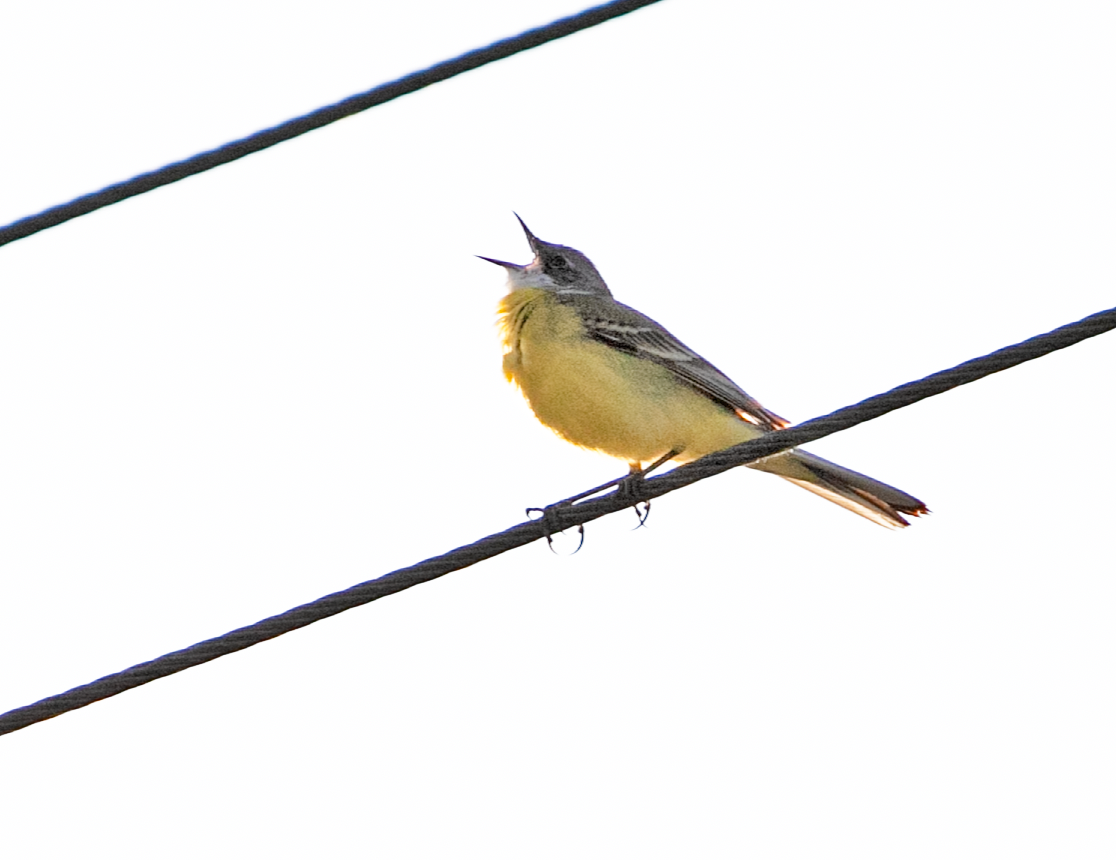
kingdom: Animalia
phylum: Chordata
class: Aves
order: Passeriformes
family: Motacillidae
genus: Motacilla
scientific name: Motacilla flava
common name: Western yellow wagtail
